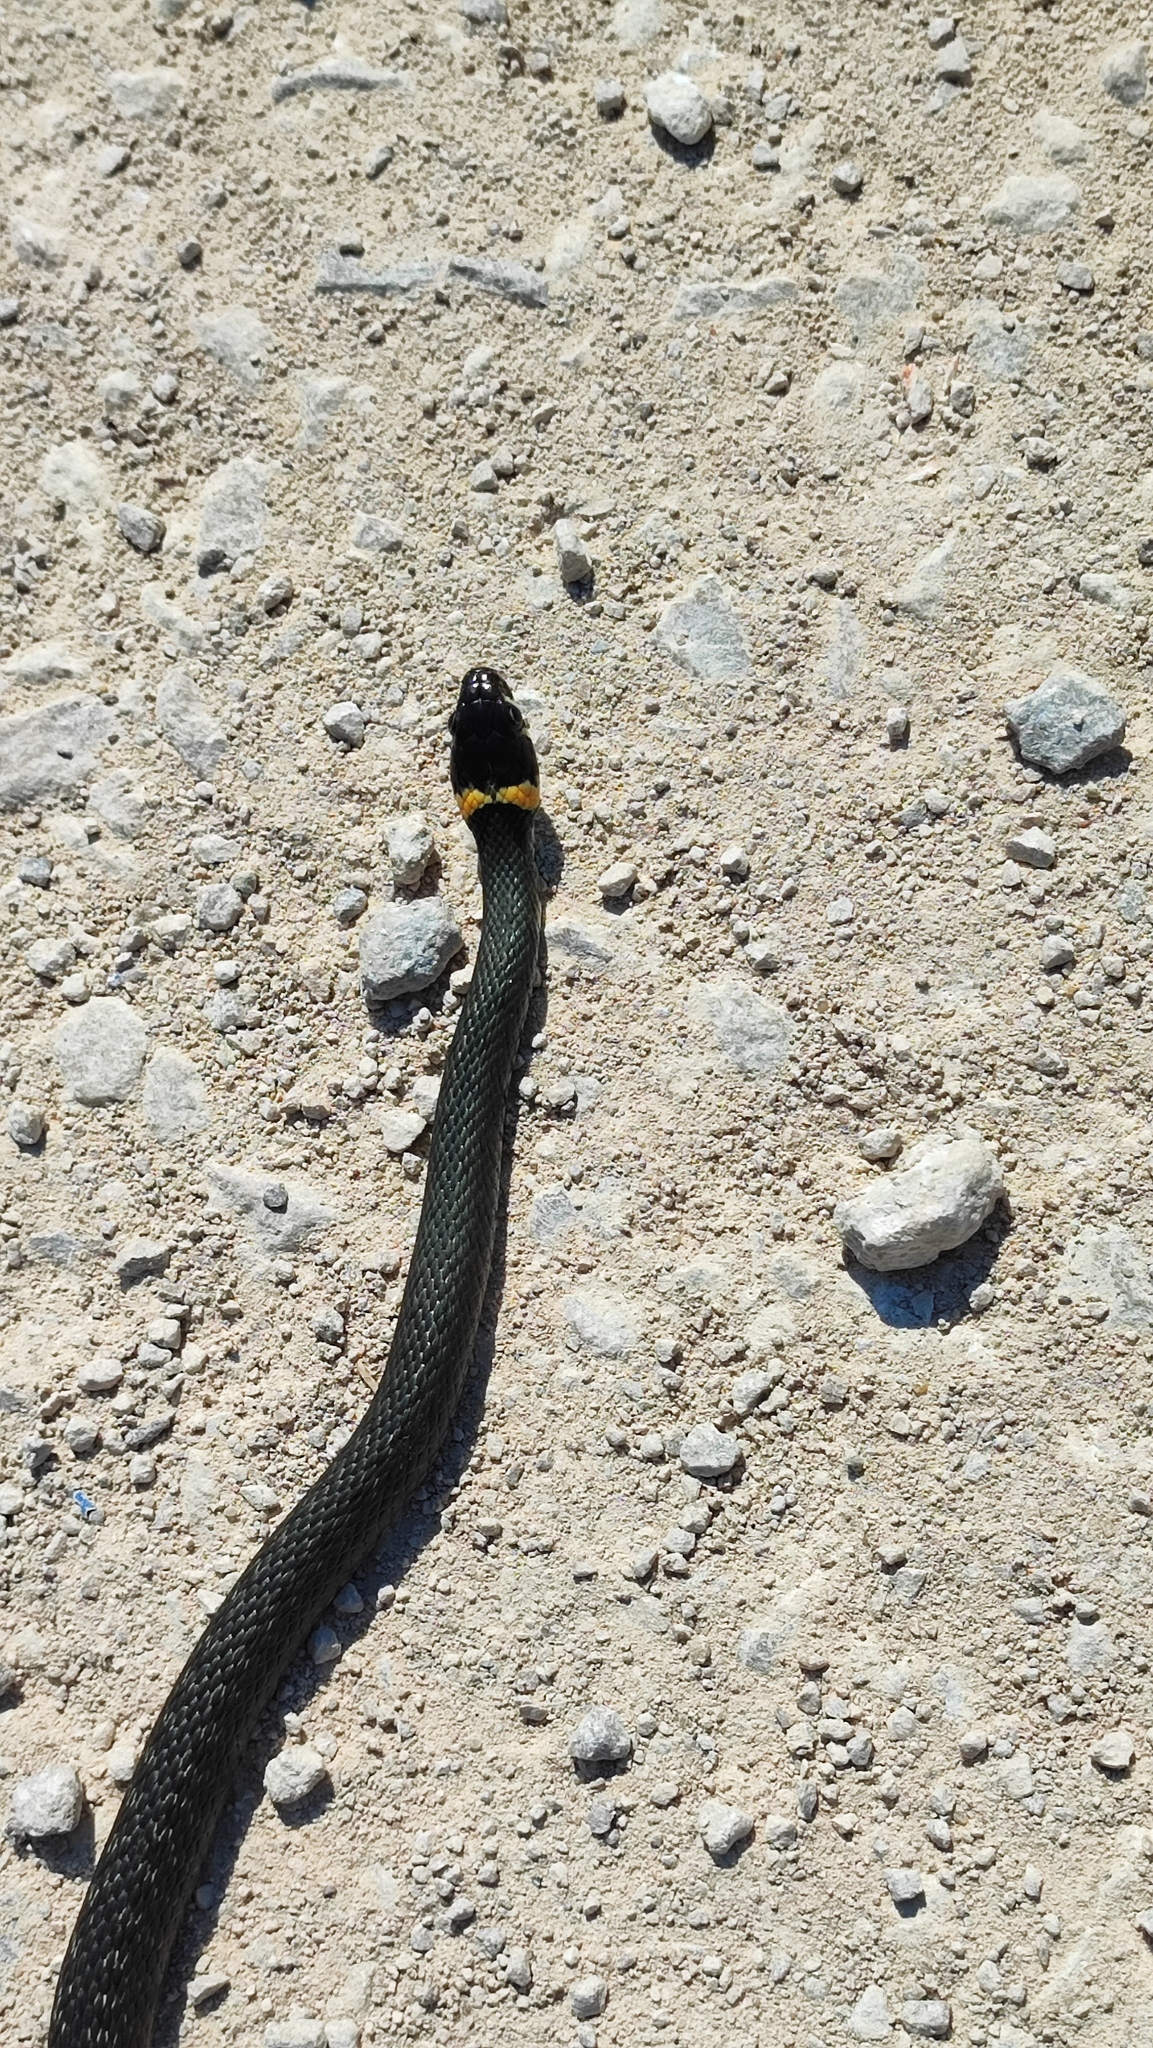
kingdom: Animalia
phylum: Chordata
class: Squamata
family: Colubridae
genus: Natrix
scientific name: Natrix natrix
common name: Grass snake
